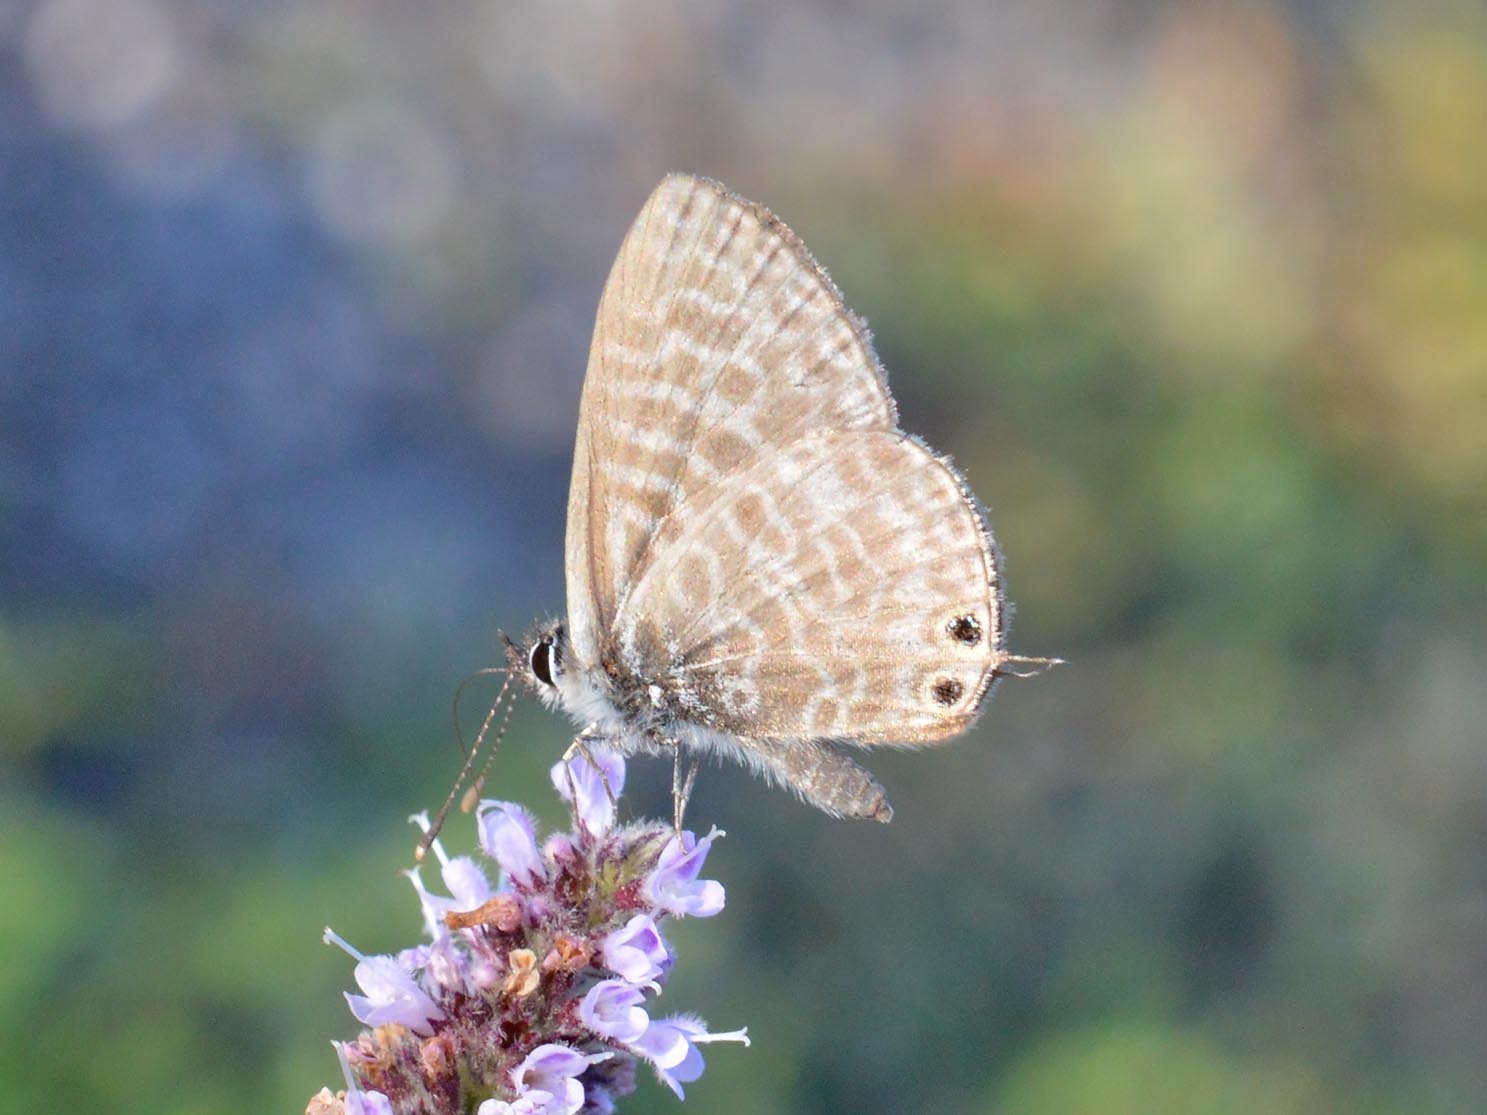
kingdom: Animalia
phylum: Arthropoda
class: Insecta
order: Lepidoptera
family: Lycaenidae
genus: Leptotes
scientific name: Leptotes pirithous
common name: Lang's short-tailed blue
